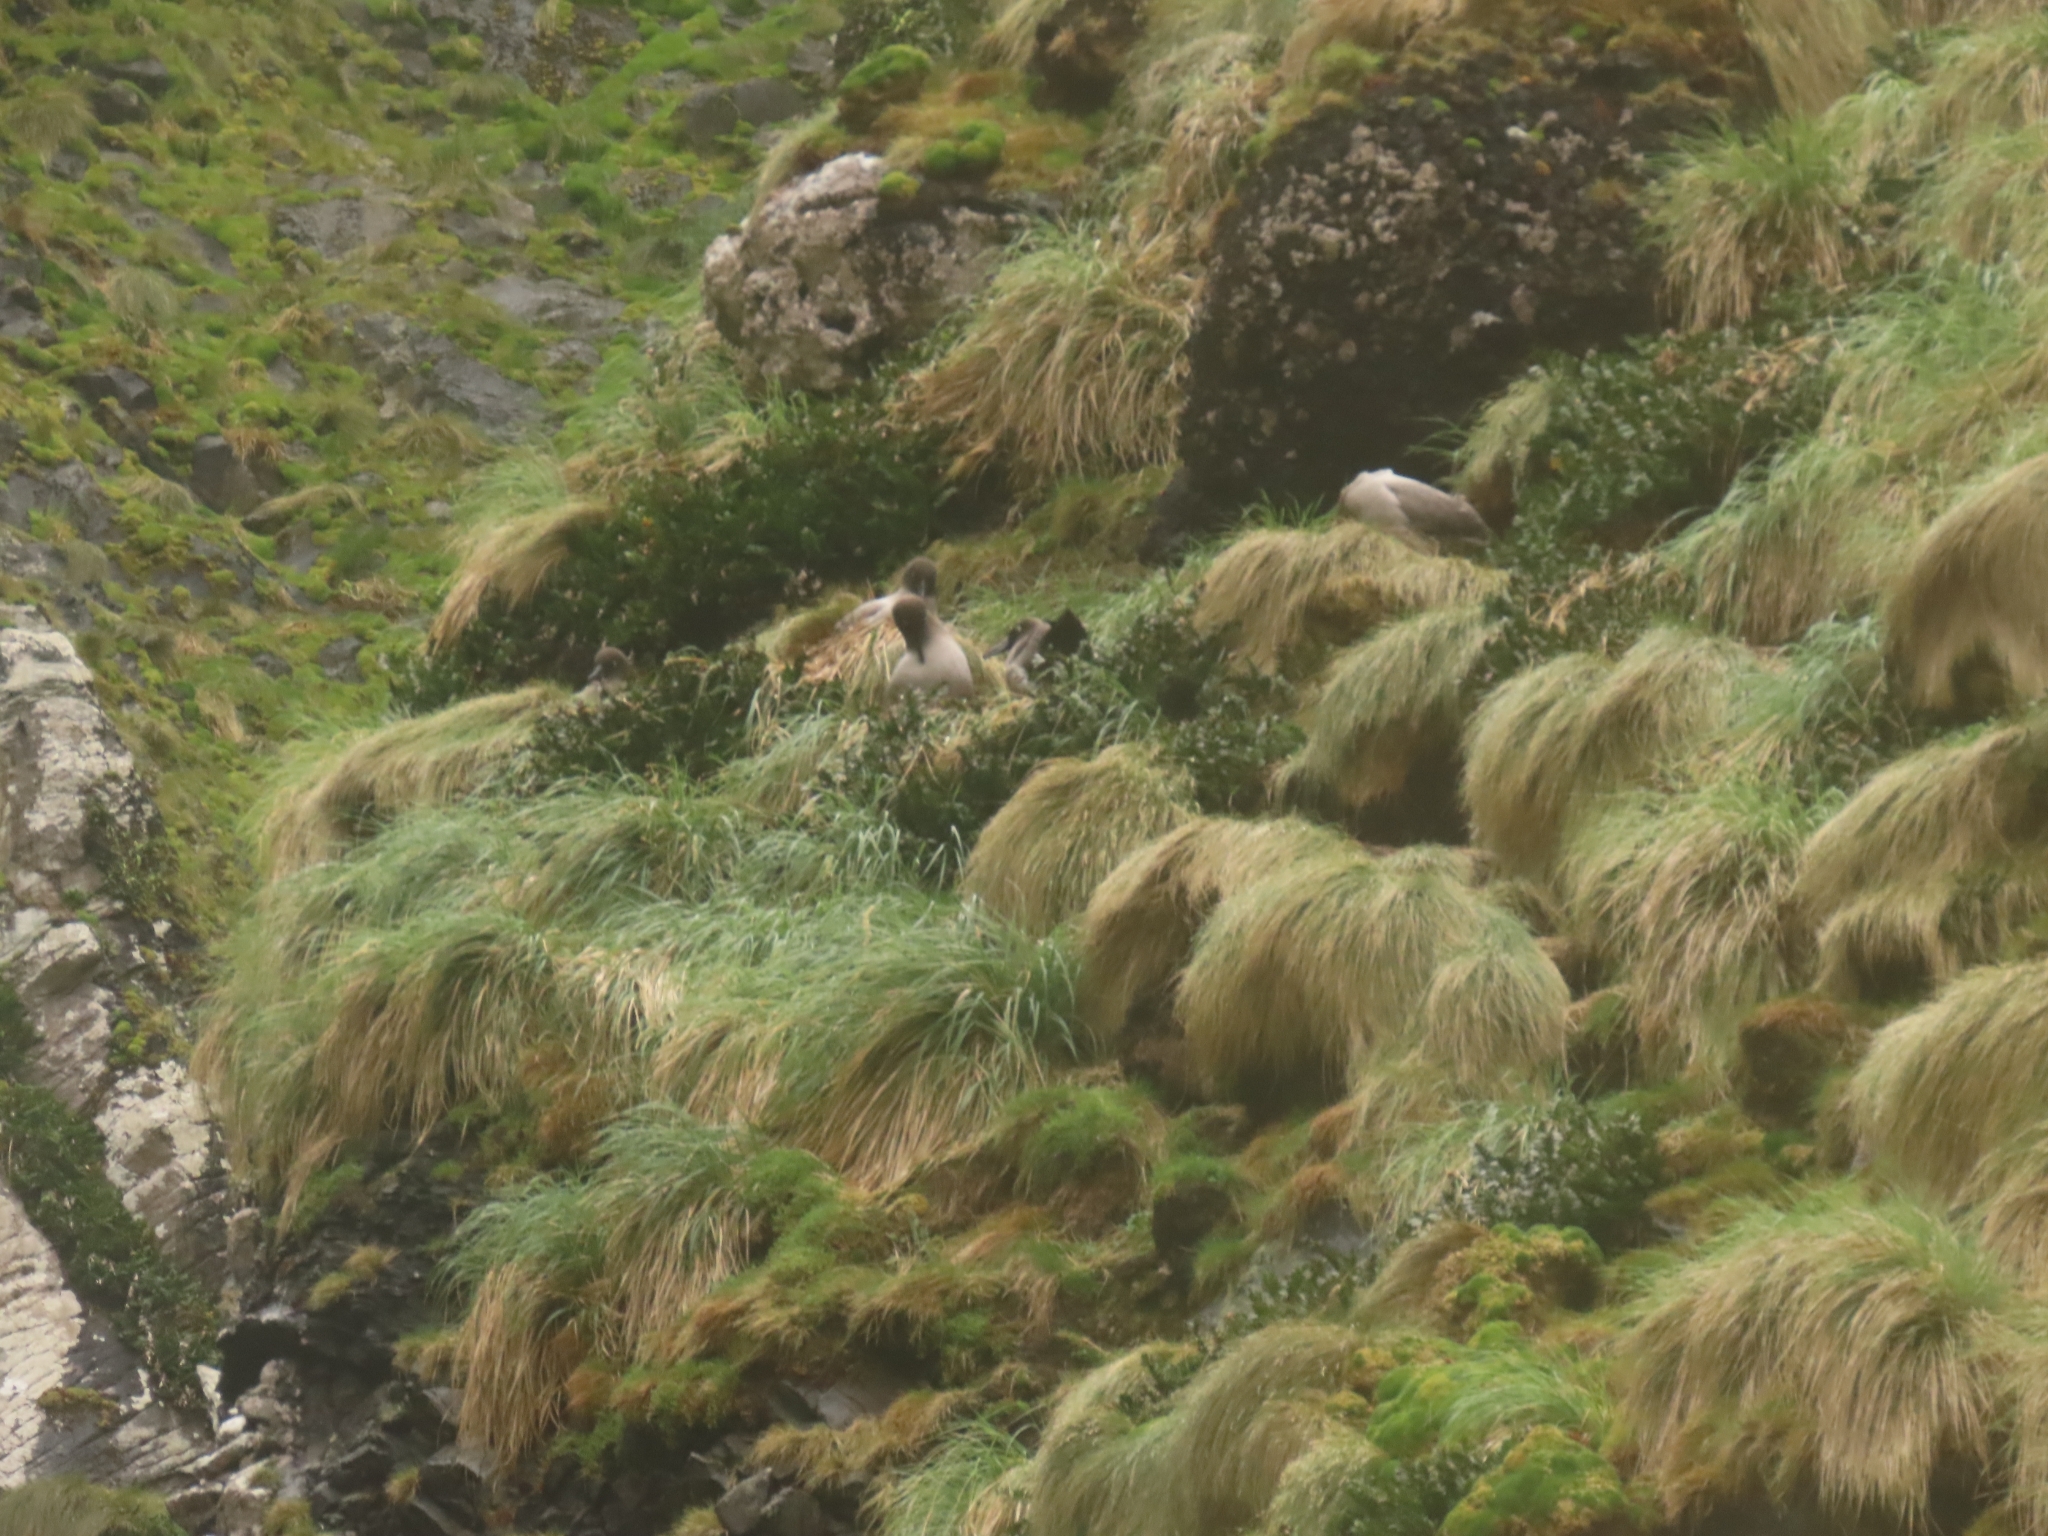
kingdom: Animalia
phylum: Chordata
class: Aves
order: Procellariiformes
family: Diomedeidae
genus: Phoebetria
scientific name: Phoebetria palpebrata
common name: Light-mantled albatross
